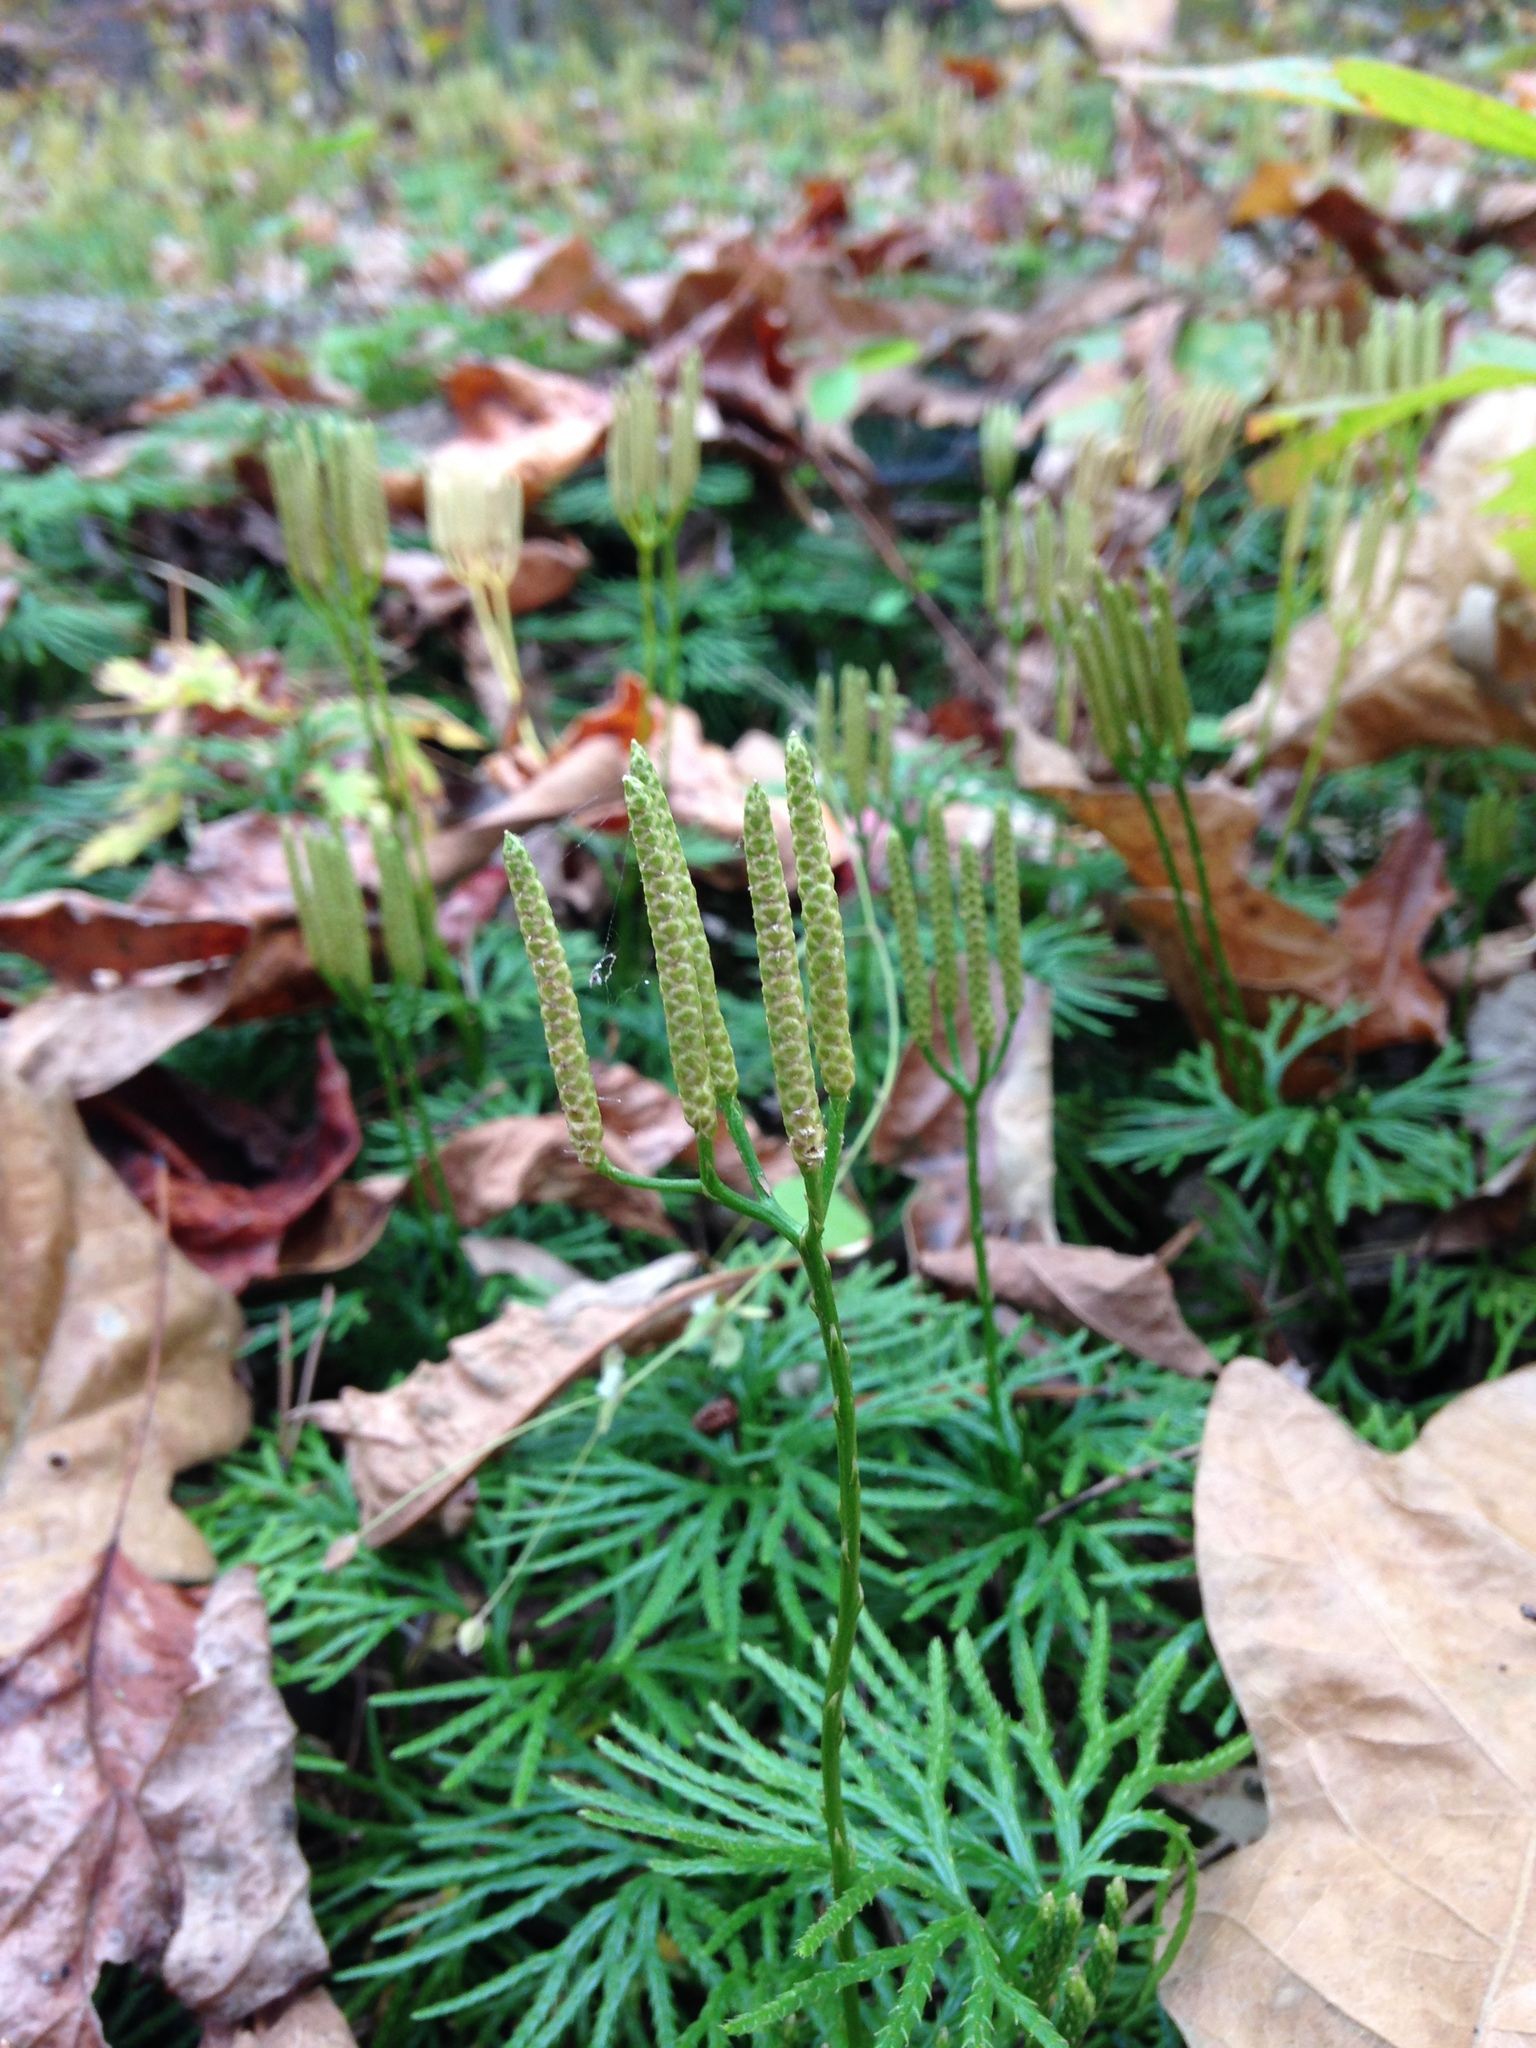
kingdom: Plantae
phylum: Tracheophyta
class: Lycopodiopsida
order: Lycopodiales
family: Lycopodiaceae
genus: Diphasiastrum
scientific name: Diphasiastrum digitatum
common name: Southern running-pine
